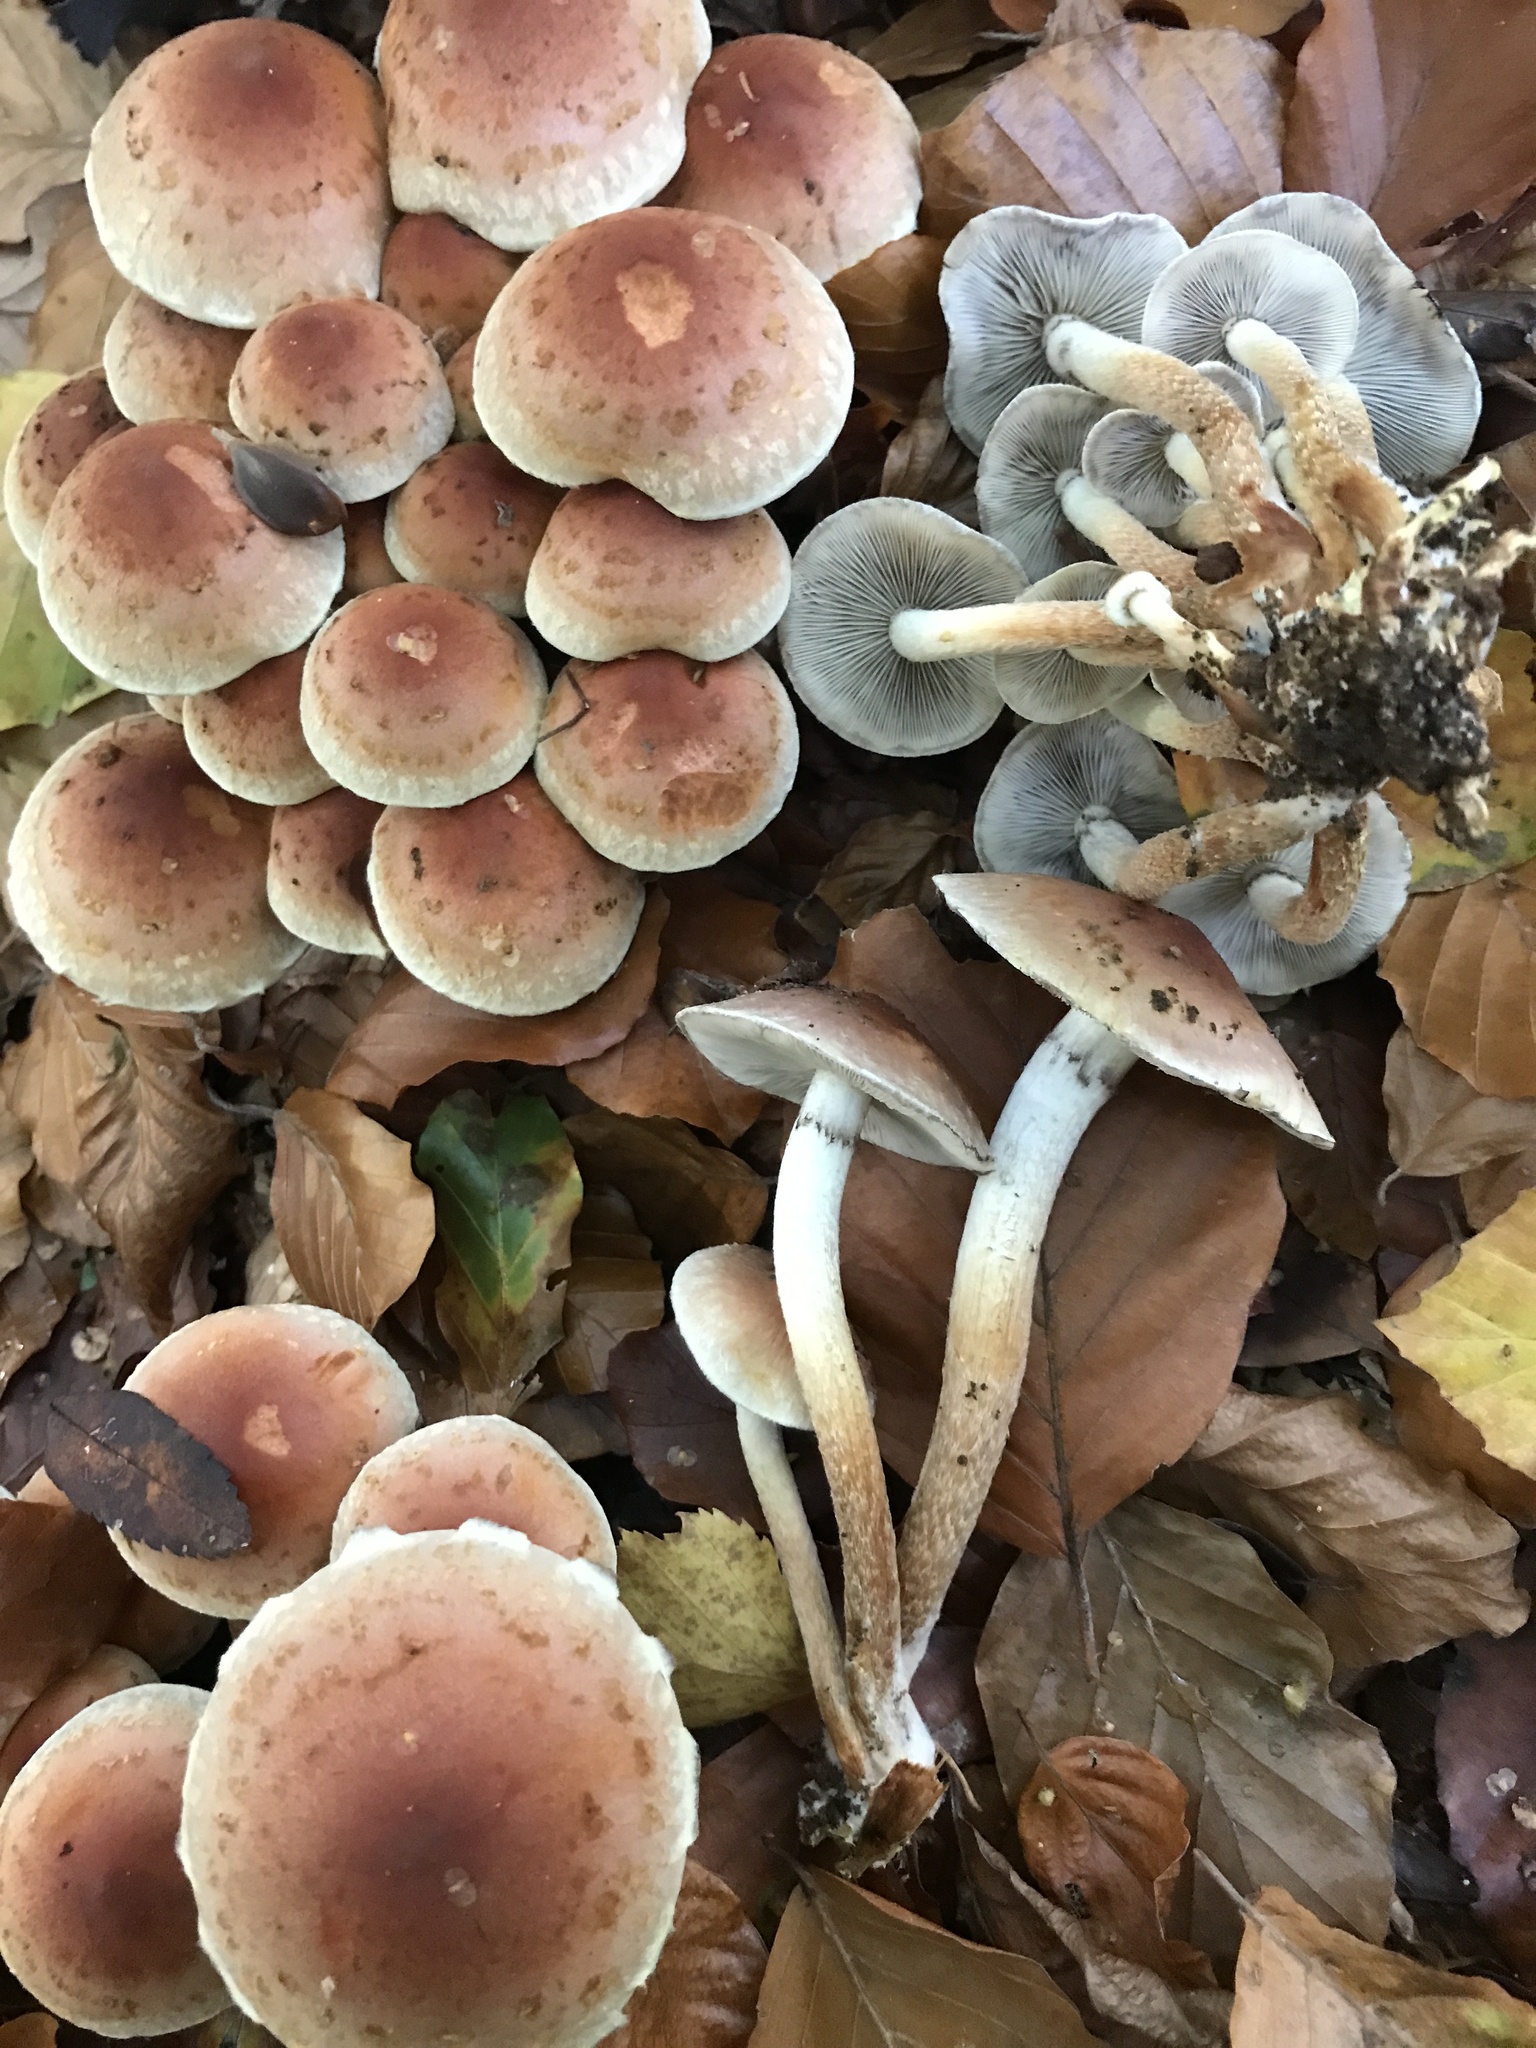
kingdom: Fungi
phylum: Basidiomycota
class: Agaricomycetes
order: Agaricales
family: Strophariaceae
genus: Hypholoma
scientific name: Hypholoma lateritium
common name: Brick caps
